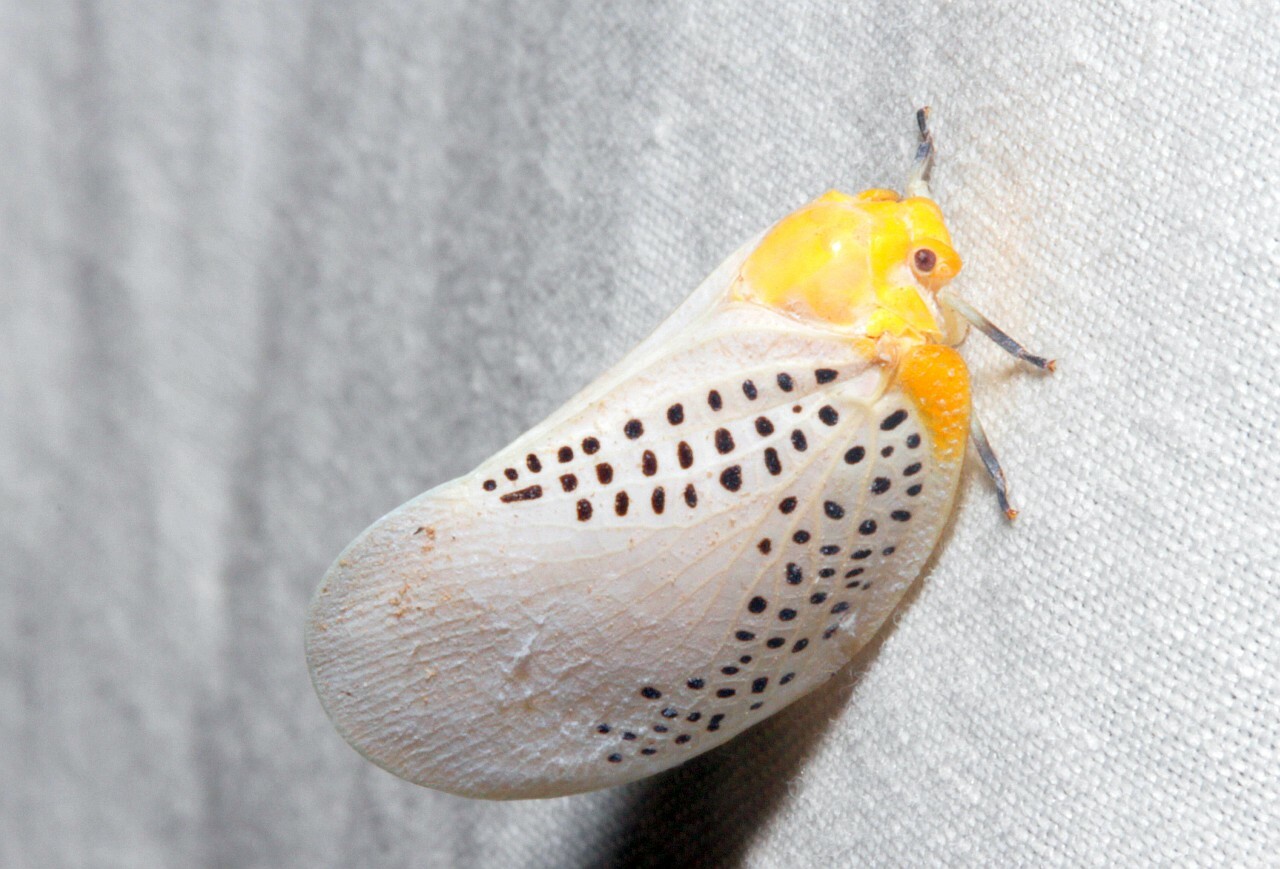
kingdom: Animalia
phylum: Arthropoda
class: Insecta
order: Hemiptera
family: Flatidae
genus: Poekilloptera
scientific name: Poekilloptera phalaenoides
